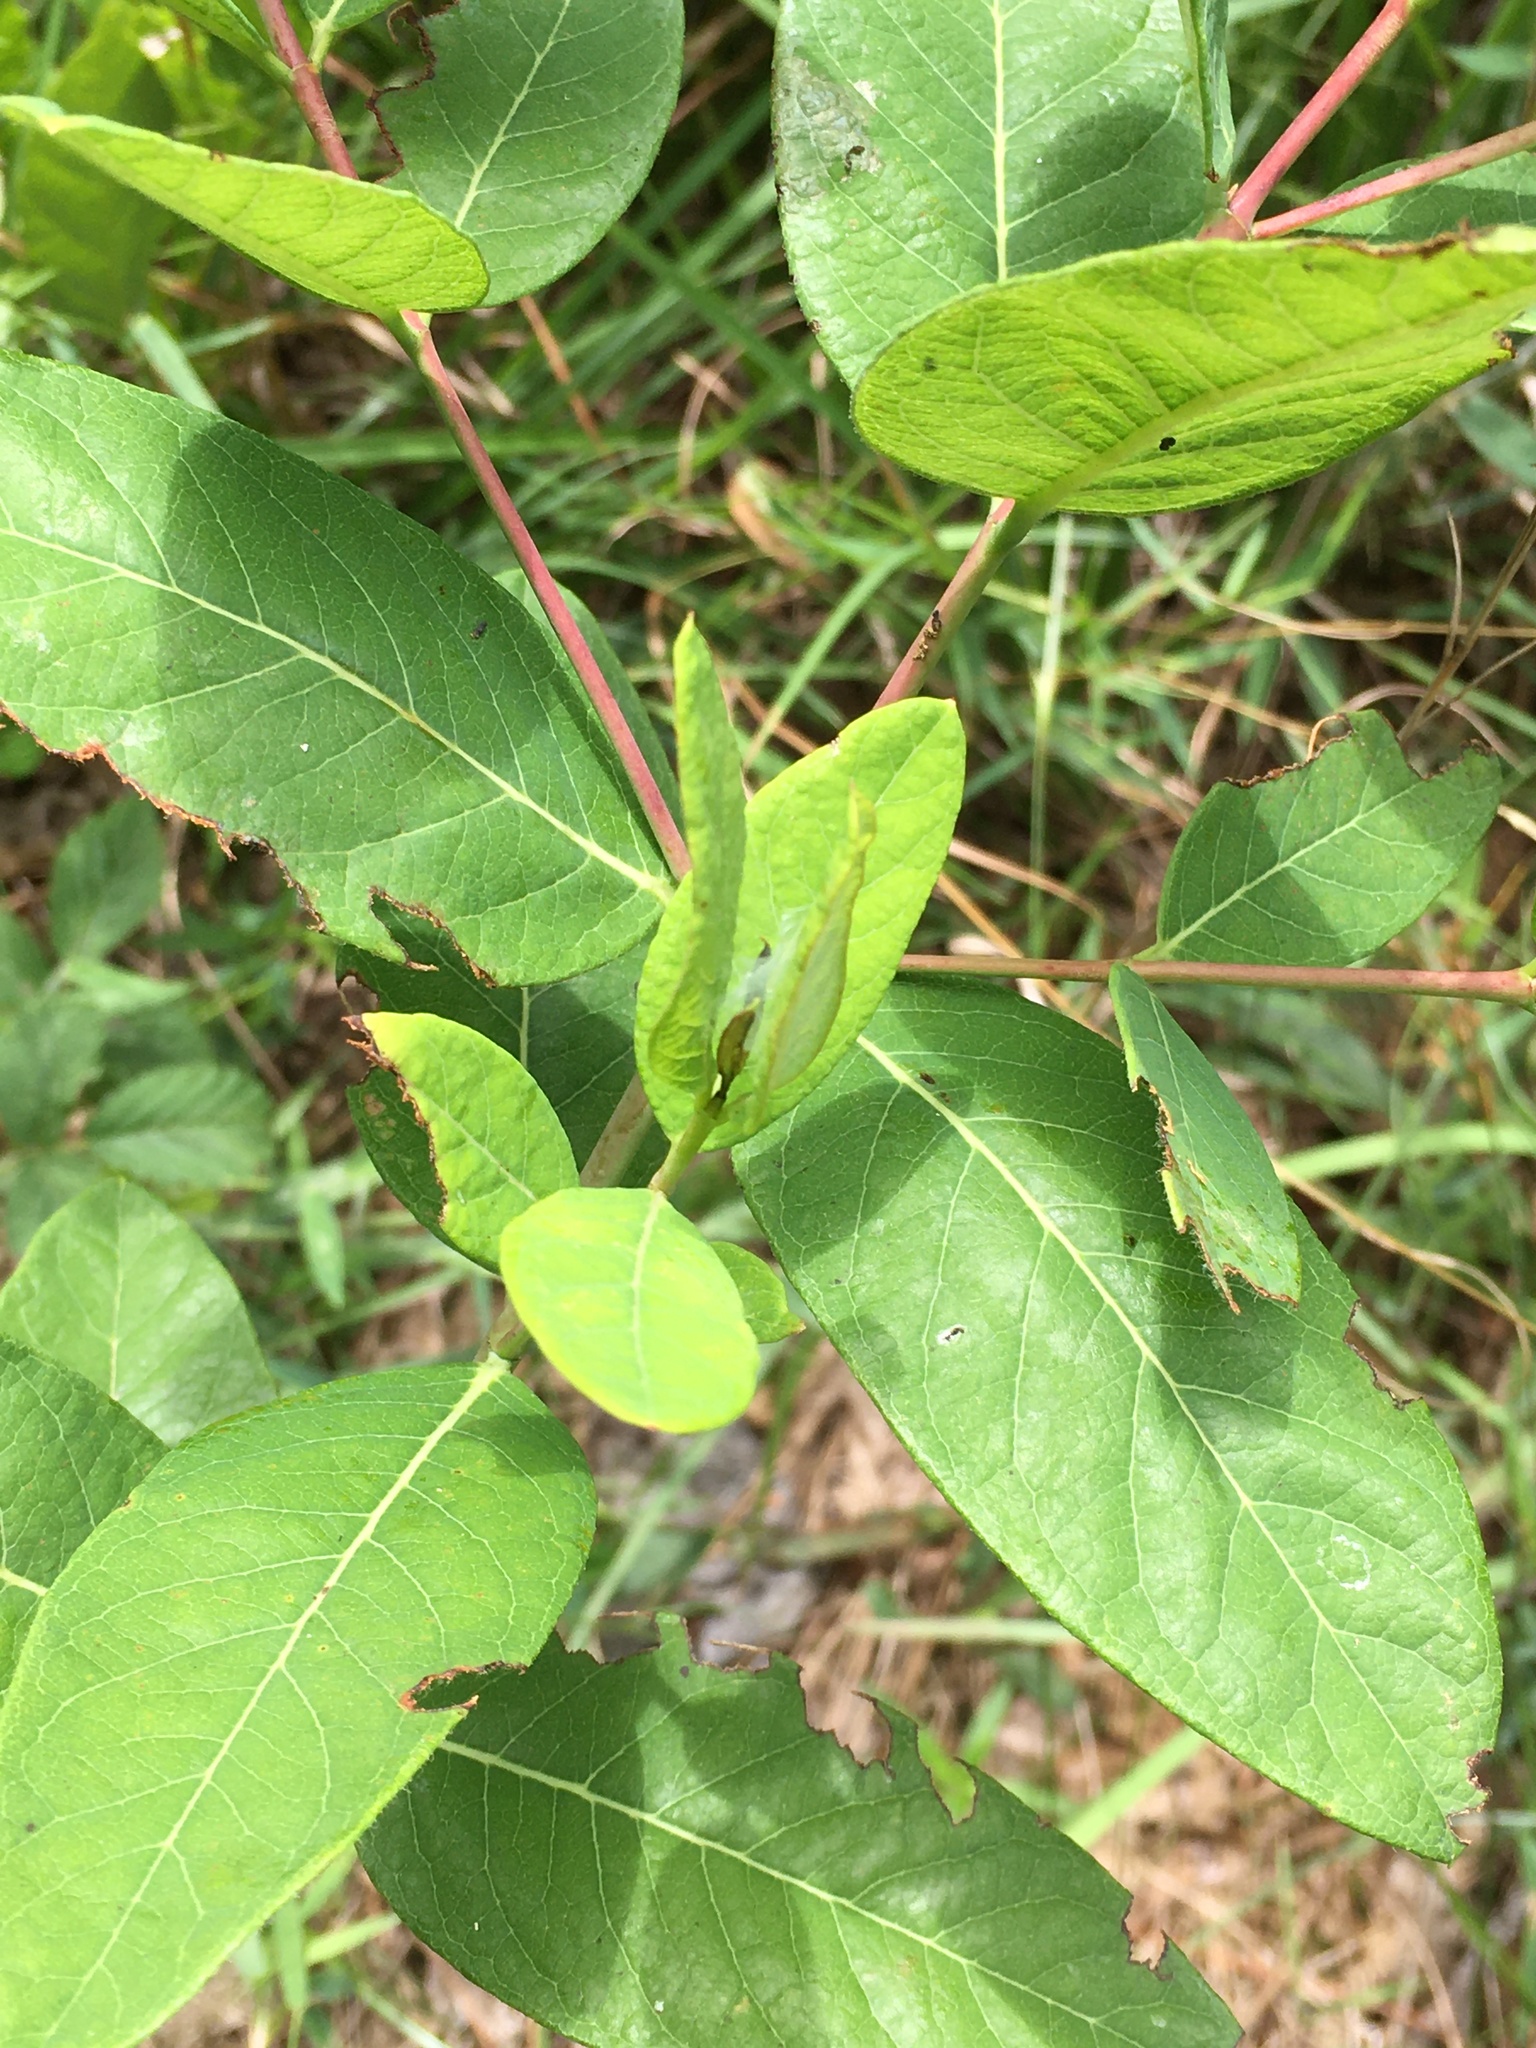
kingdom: Plantae
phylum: Tracheophyta
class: Magnoliopsida
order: Gentianales
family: Apocynaceae
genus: Apocynum
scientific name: Apocynum cannabinum
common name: Hemp dogbane
